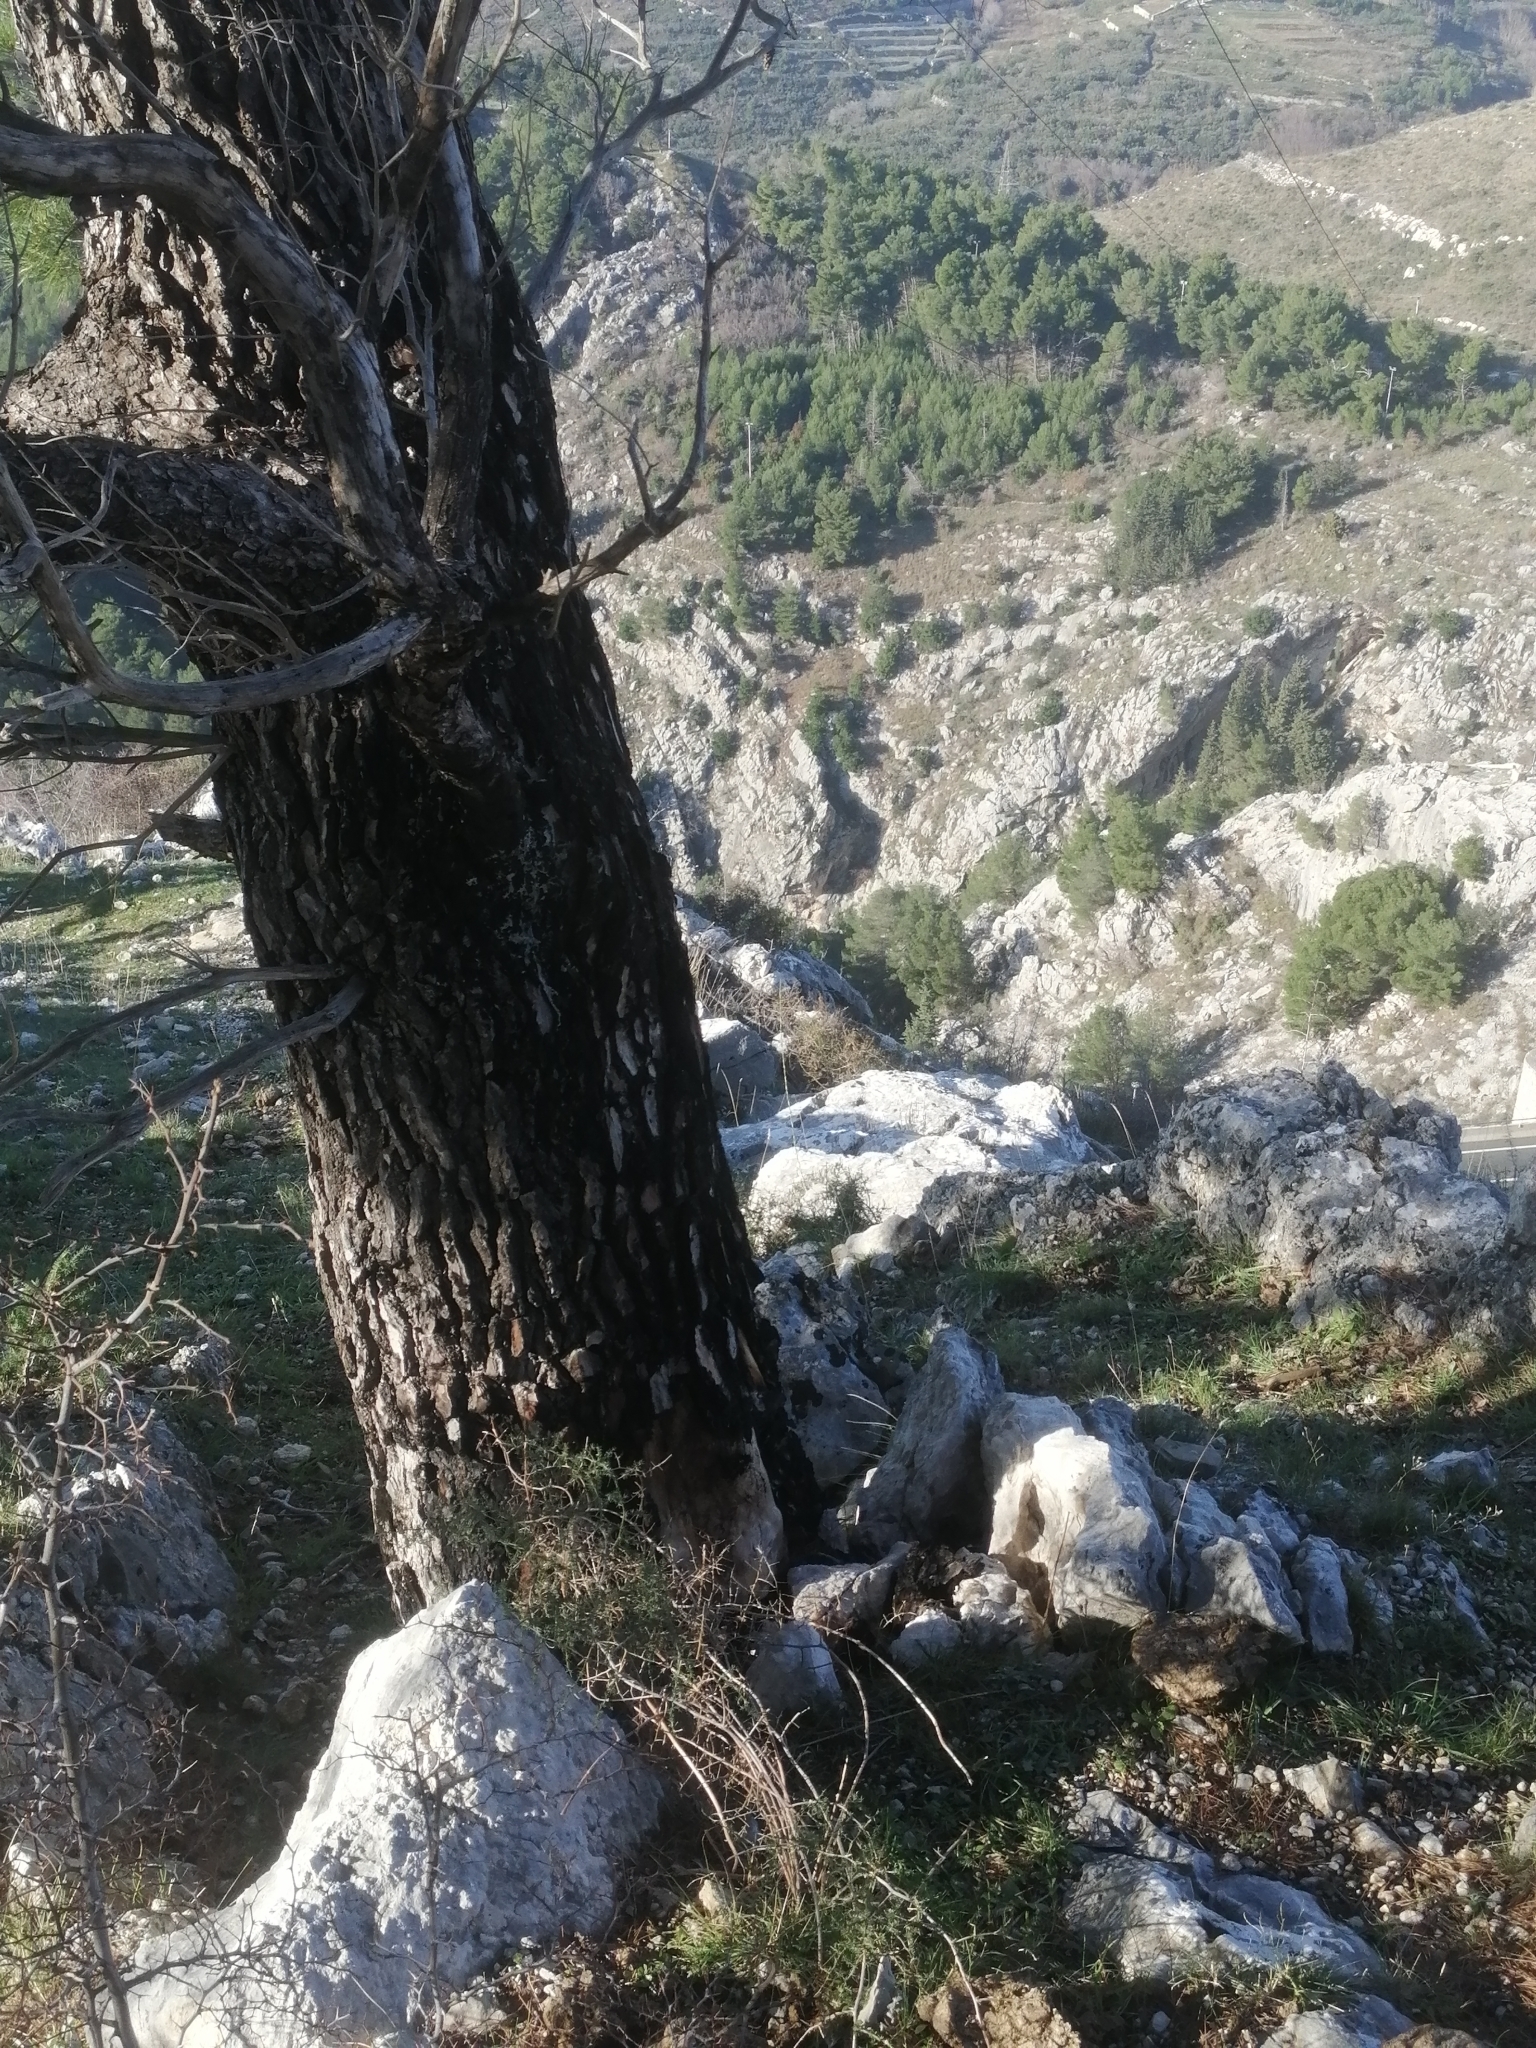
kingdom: Plantae
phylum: Tracheophyta
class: Pinopsida
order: Pinales
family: Pinaceae
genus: Pinus
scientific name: Pinus halepensis
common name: Aleppo pine
